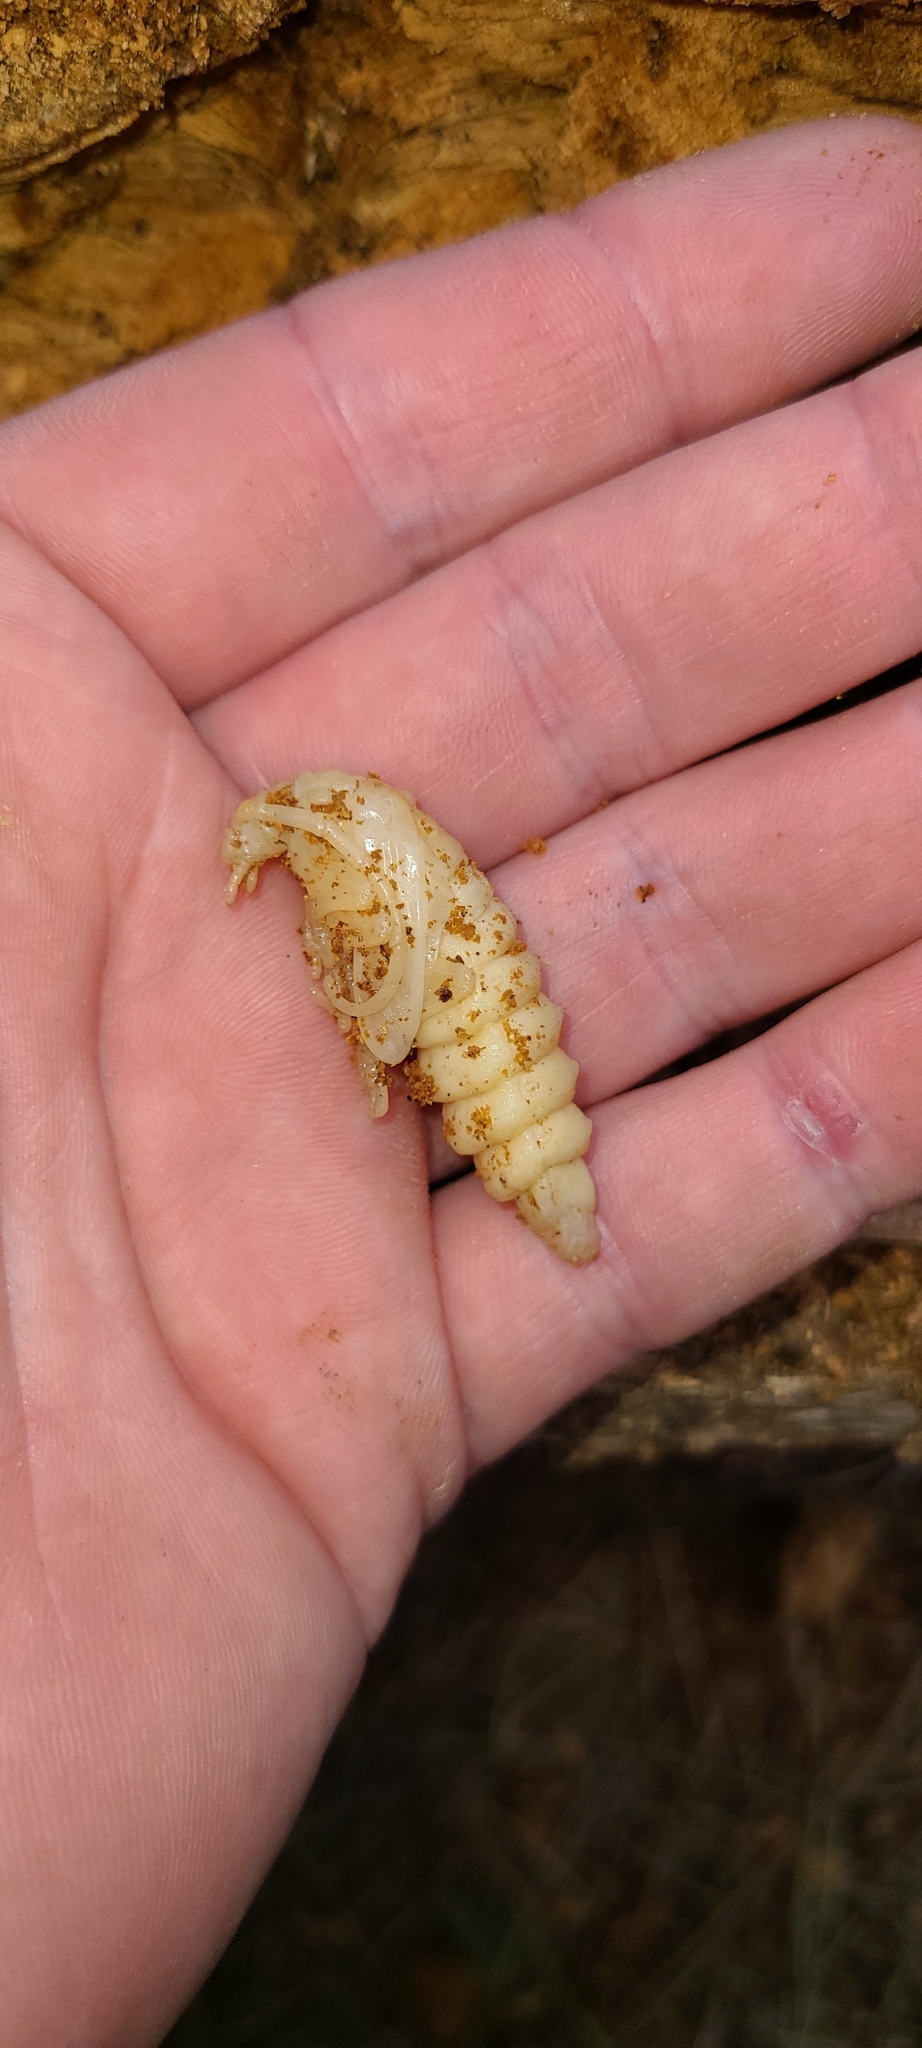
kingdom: Animalia
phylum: Arthropoda
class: Insecta
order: Coleoptera
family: Cerambycidae
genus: Prionoplus
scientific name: Prionoplus reticularis
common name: Huhu beetle
